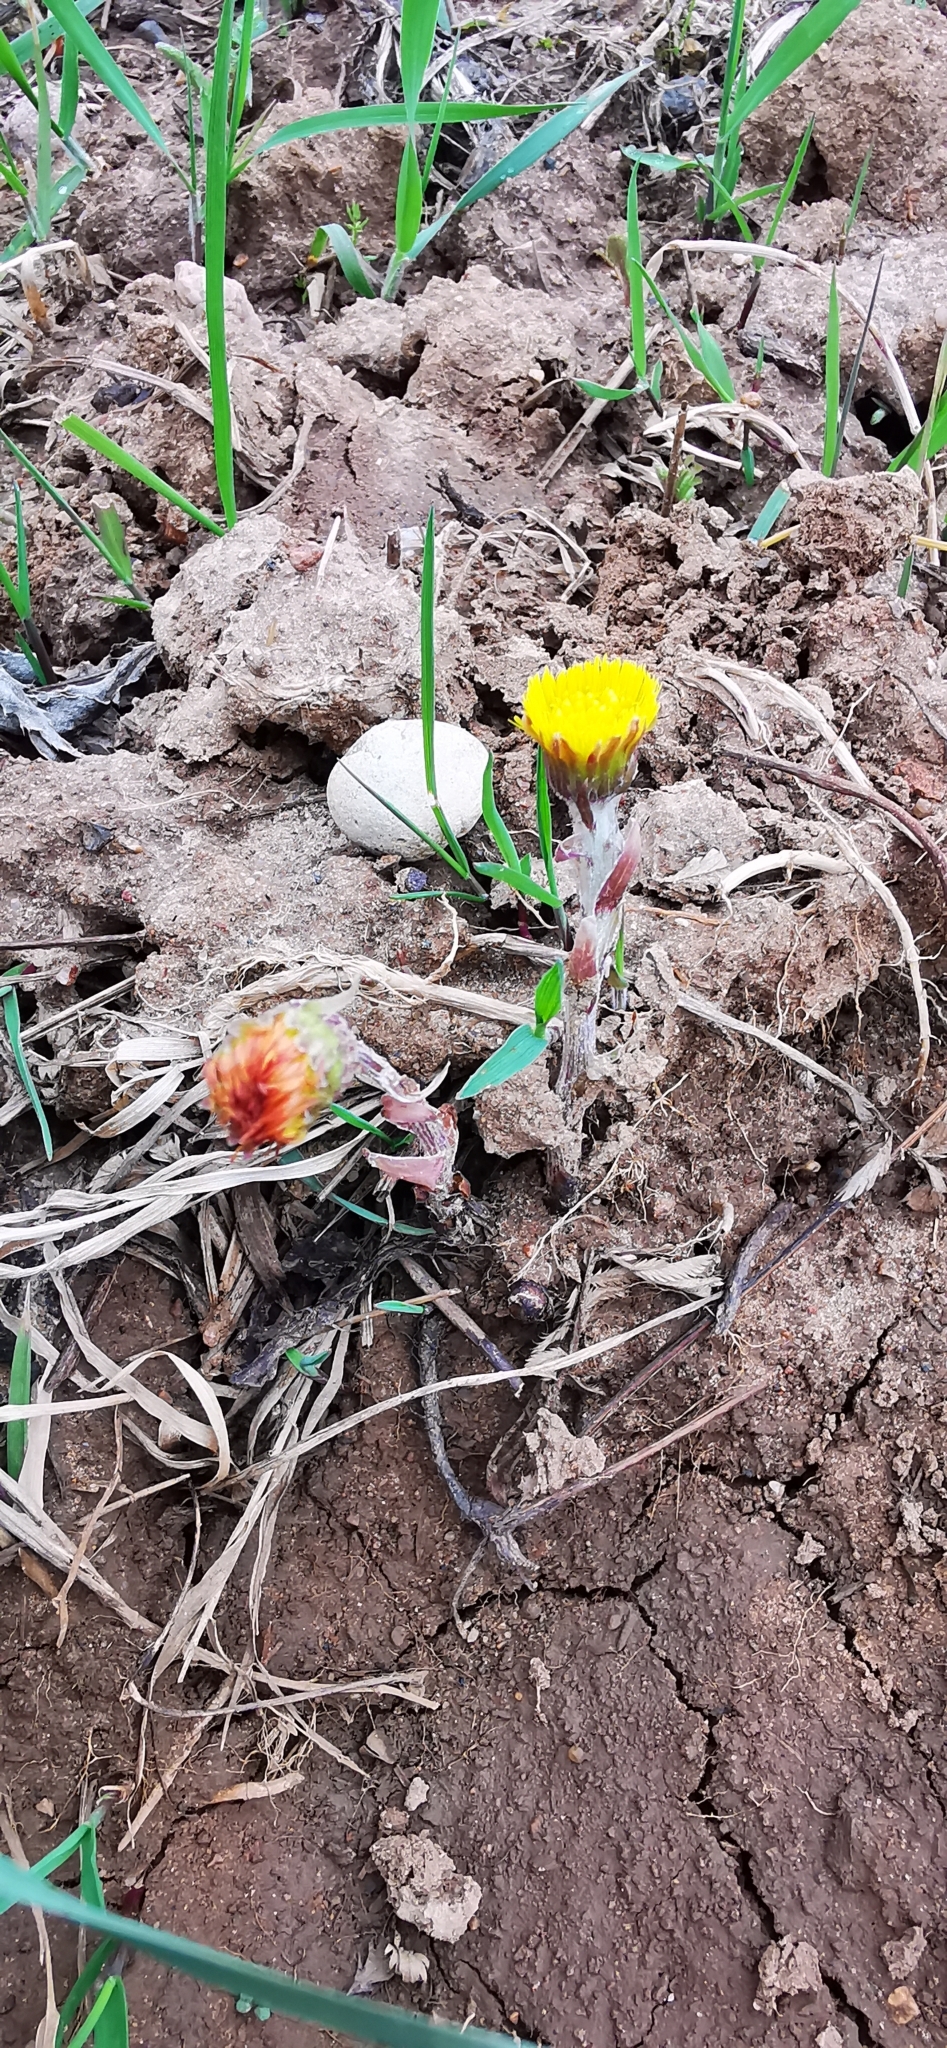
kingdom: Plantae
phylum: Tracheophyta
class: Magnoliopsida
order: Asterales
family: Asteraceae
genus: Tussilago
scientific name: Tussilago farfara
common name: Coltsfoot
